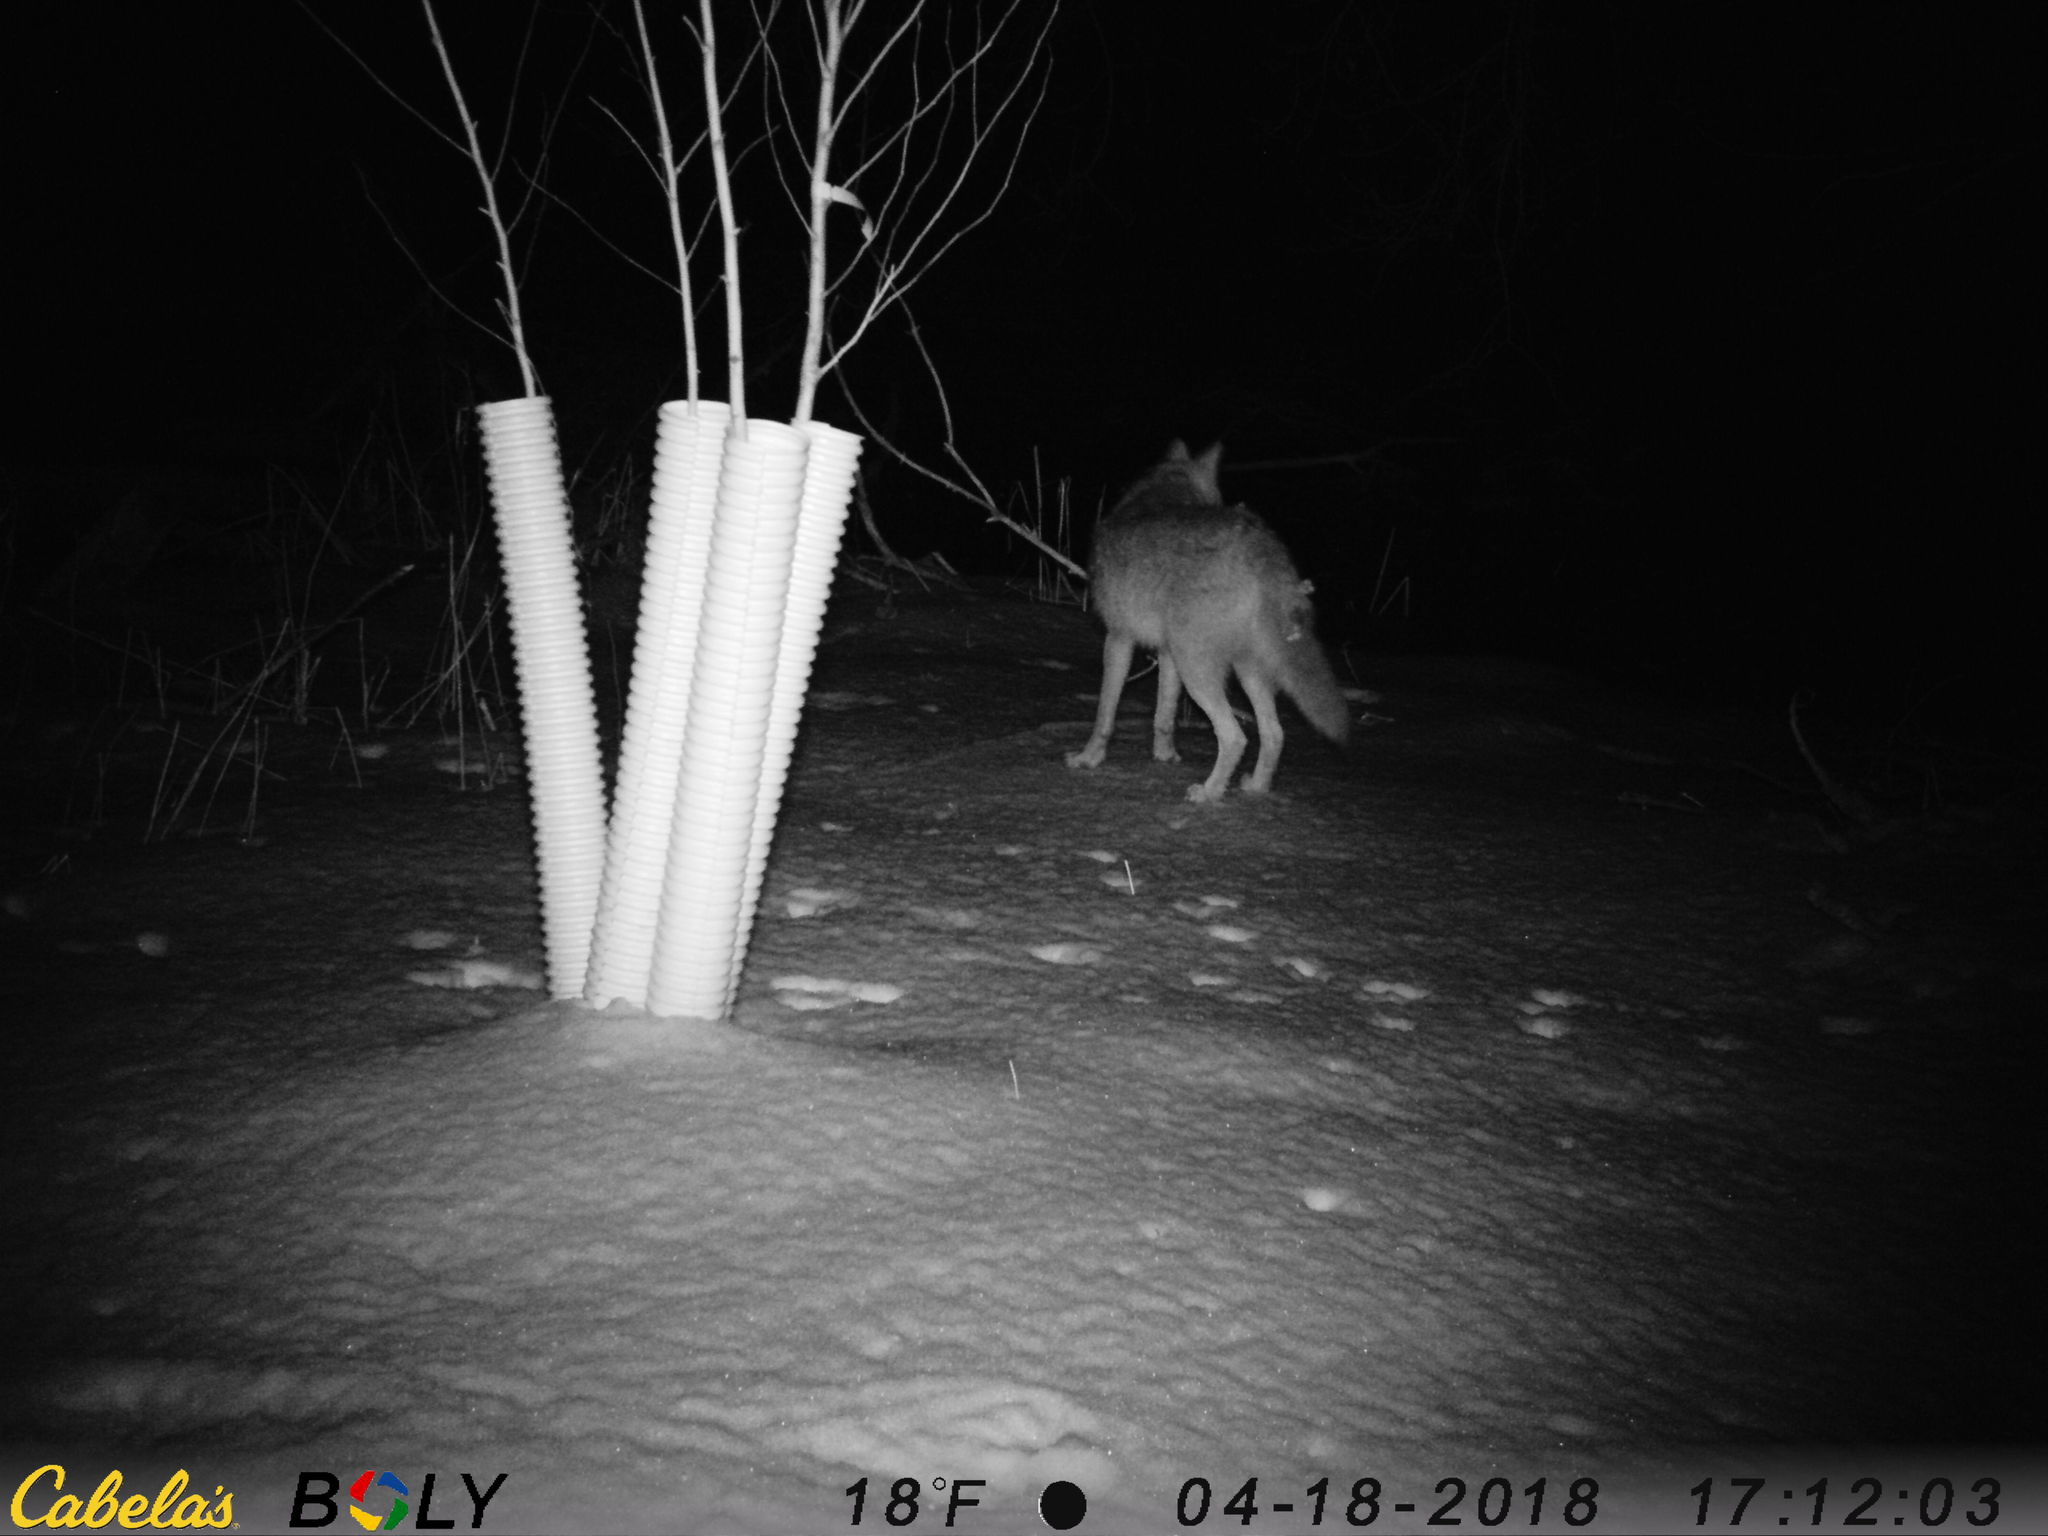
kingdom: Animalia
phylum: Chordata
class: Mammalia
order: Carnivora
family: Canidae
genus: Canis
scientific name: Canis latrans
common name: Coyote
